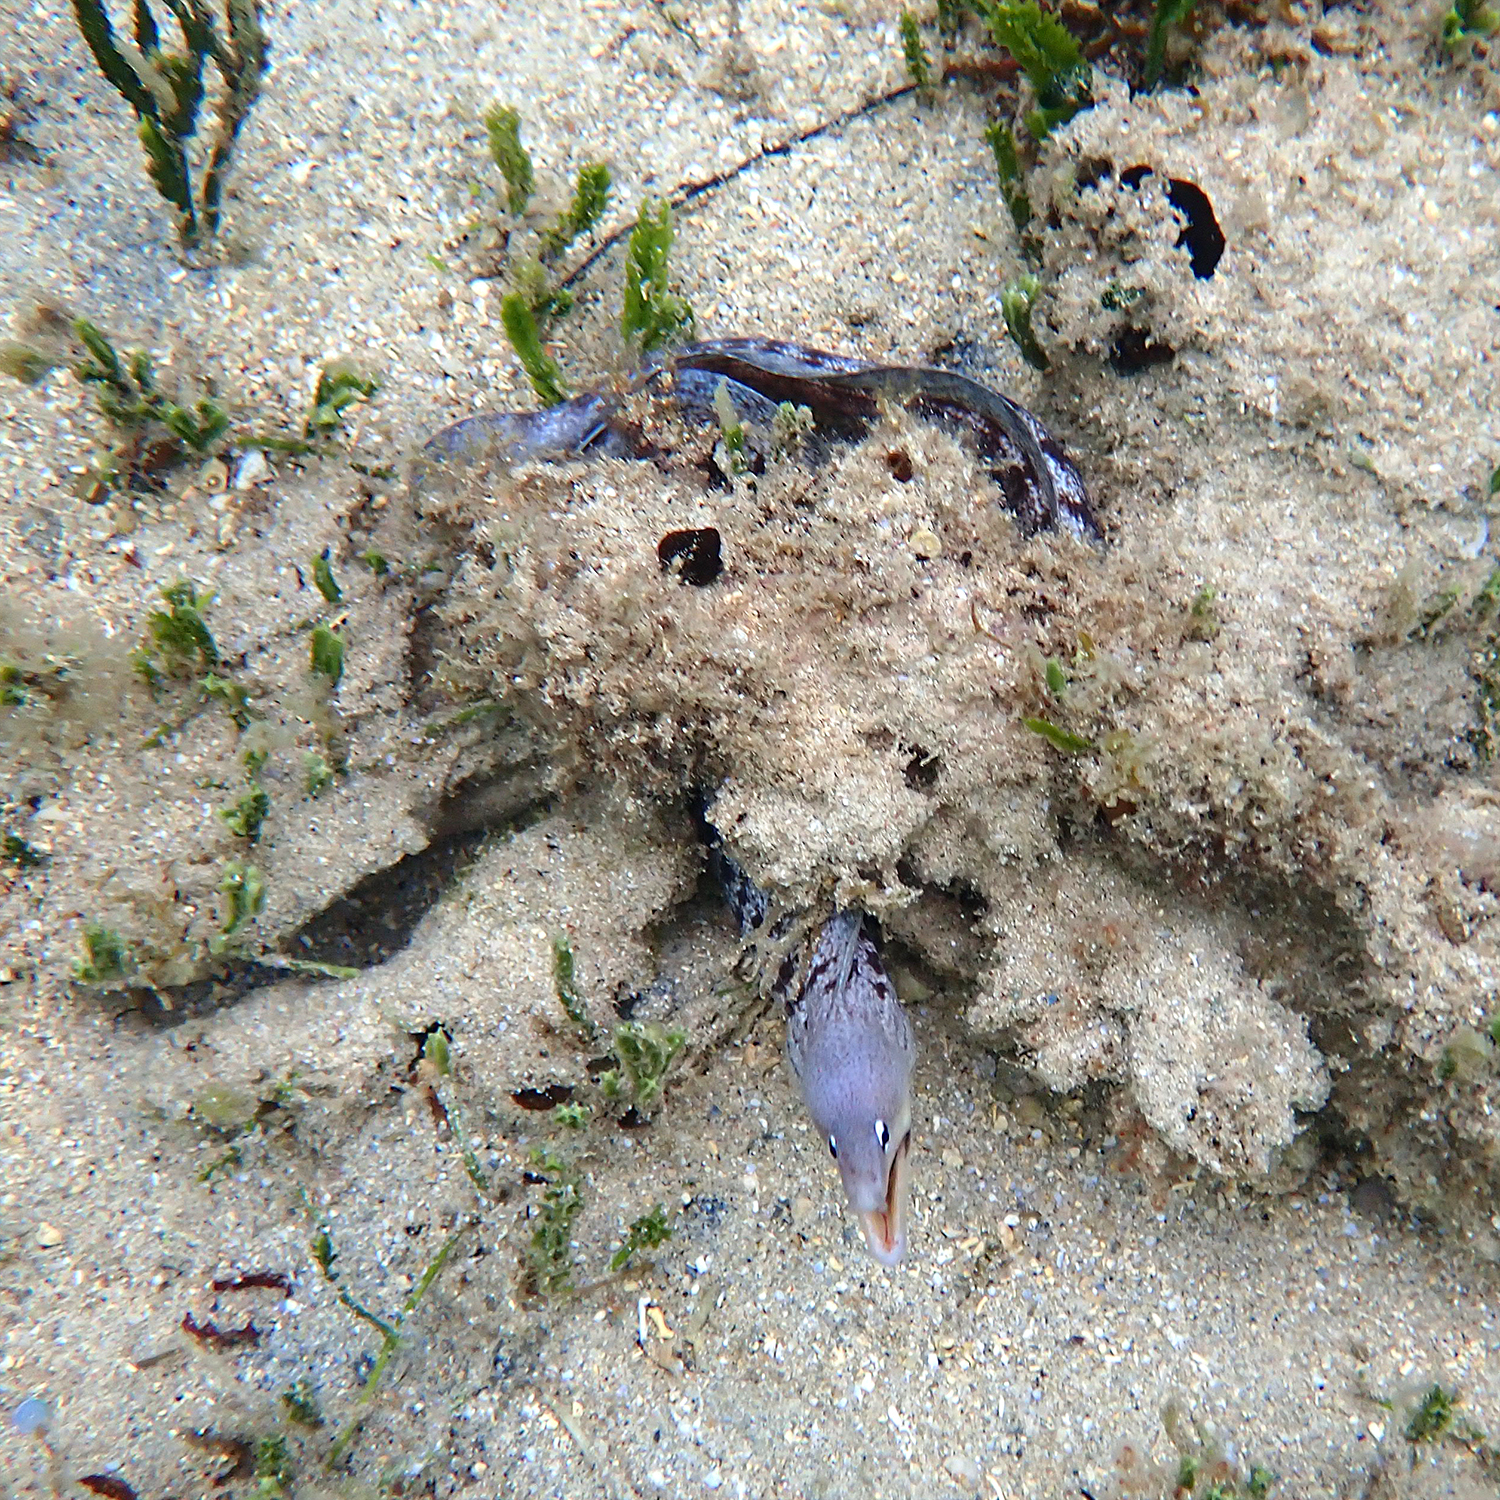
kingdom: Animalia
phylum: Chordata
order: Anguilliformes
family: Muraenidae
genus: Gymnothorax
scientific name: Gymnothorax nubilus
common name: Grey moray
